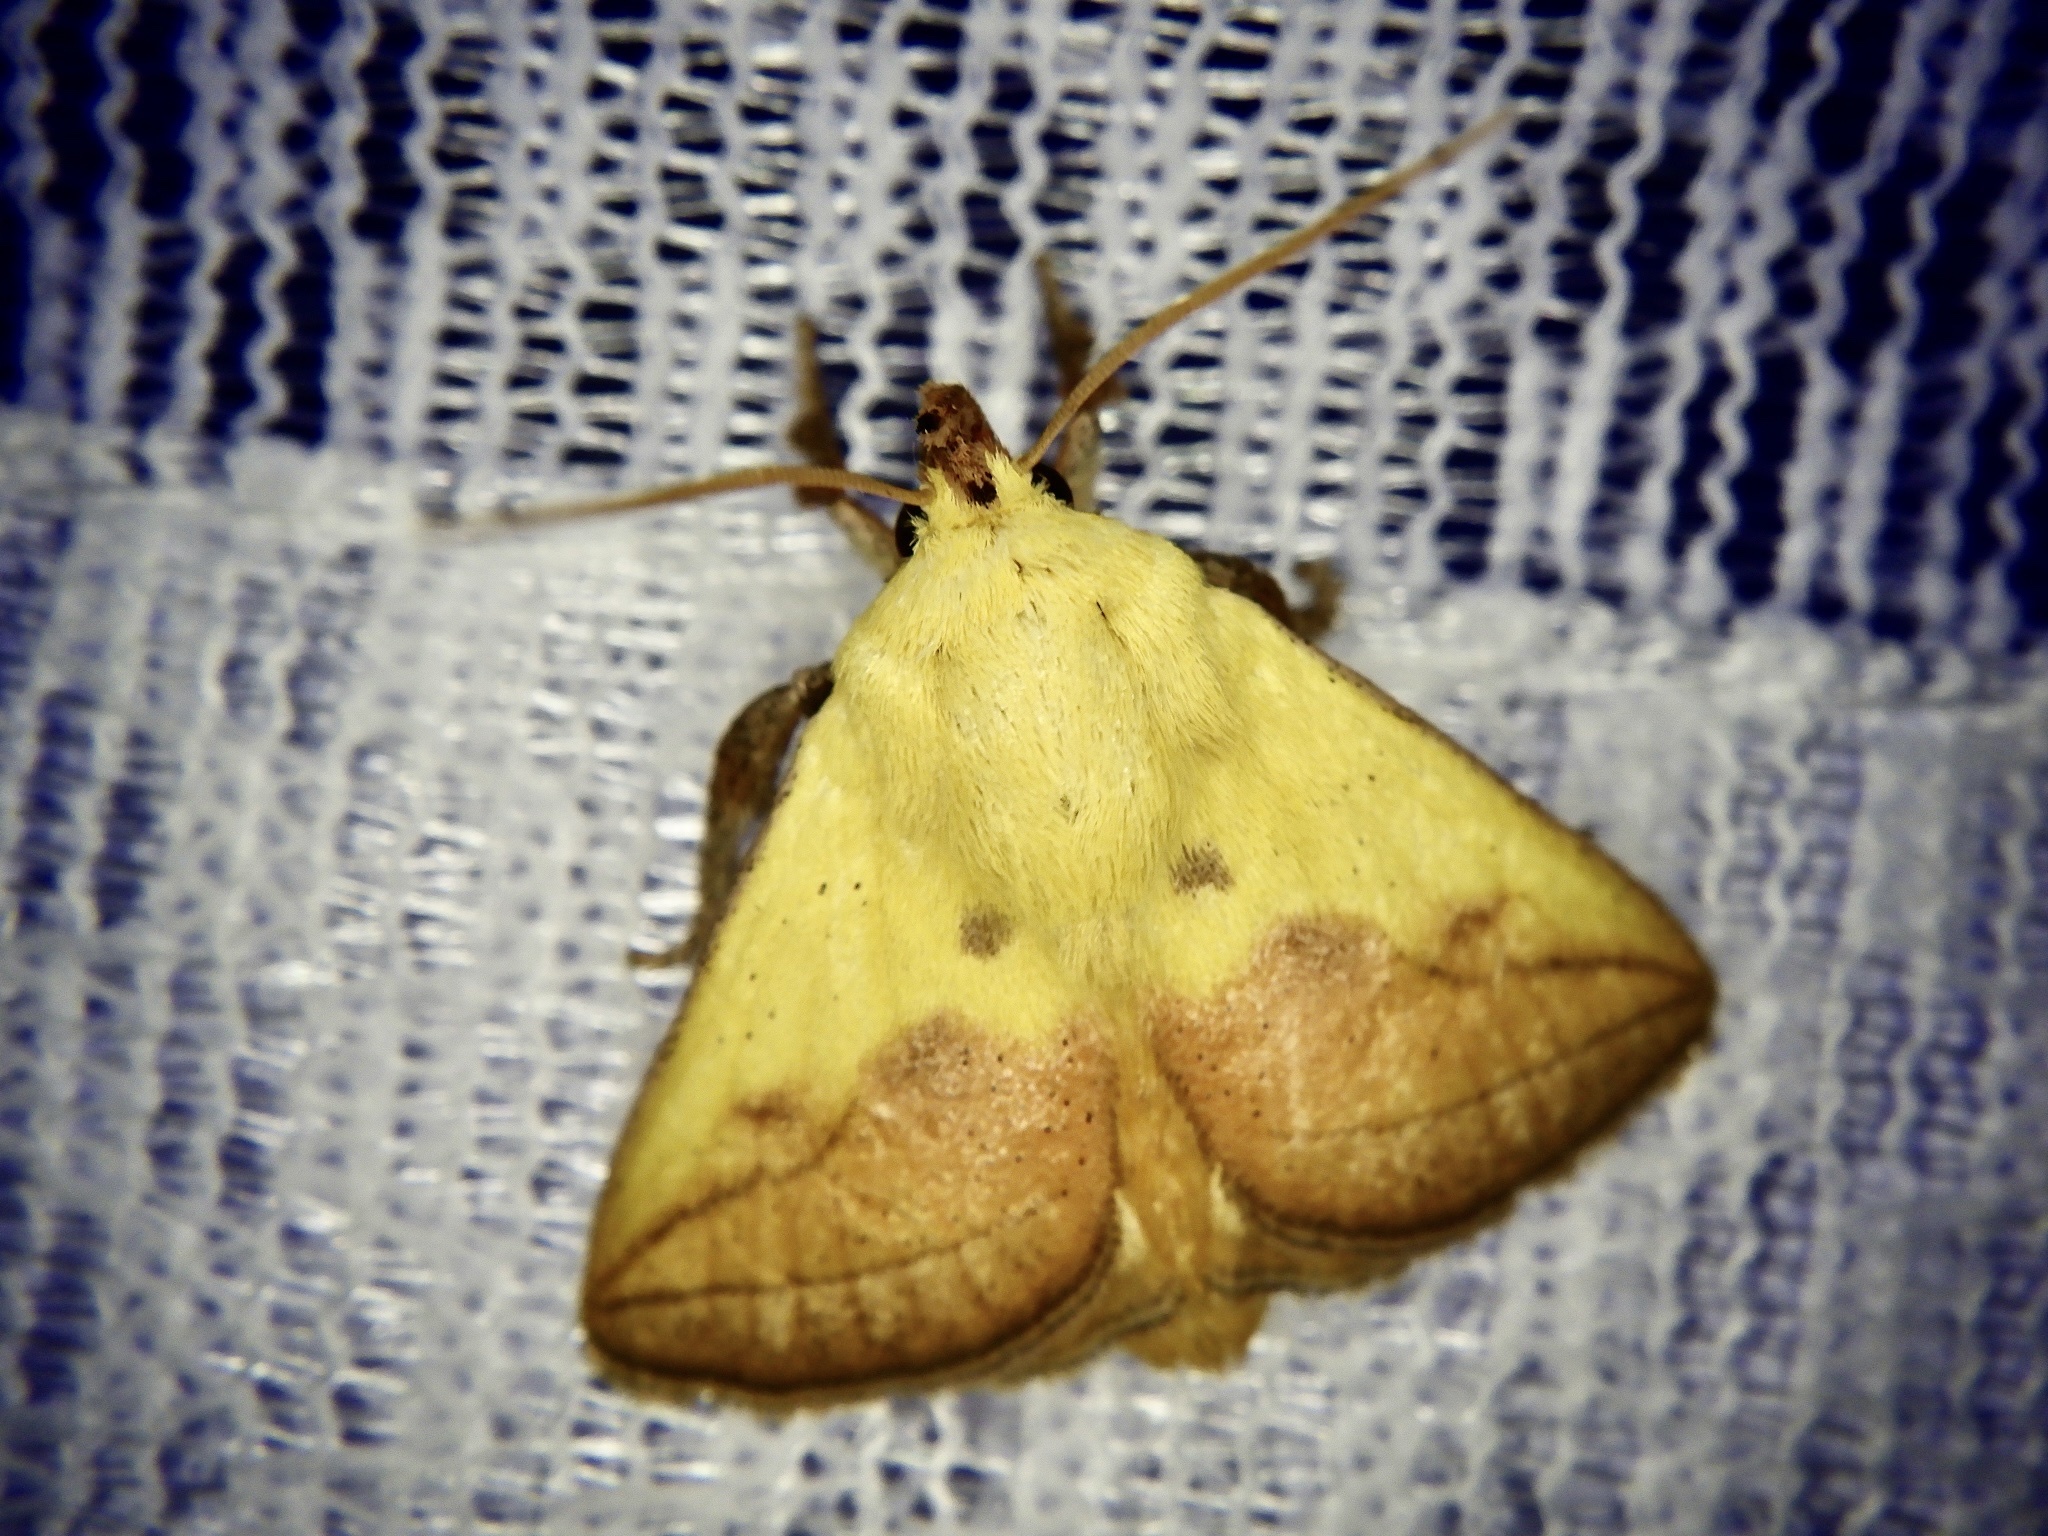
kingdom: Animalia
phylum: Arthropoda
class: Insecta
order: Lepidoptera
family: Limacodidae
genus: Monema
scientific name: Monema flavescens
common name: Oriental moth
